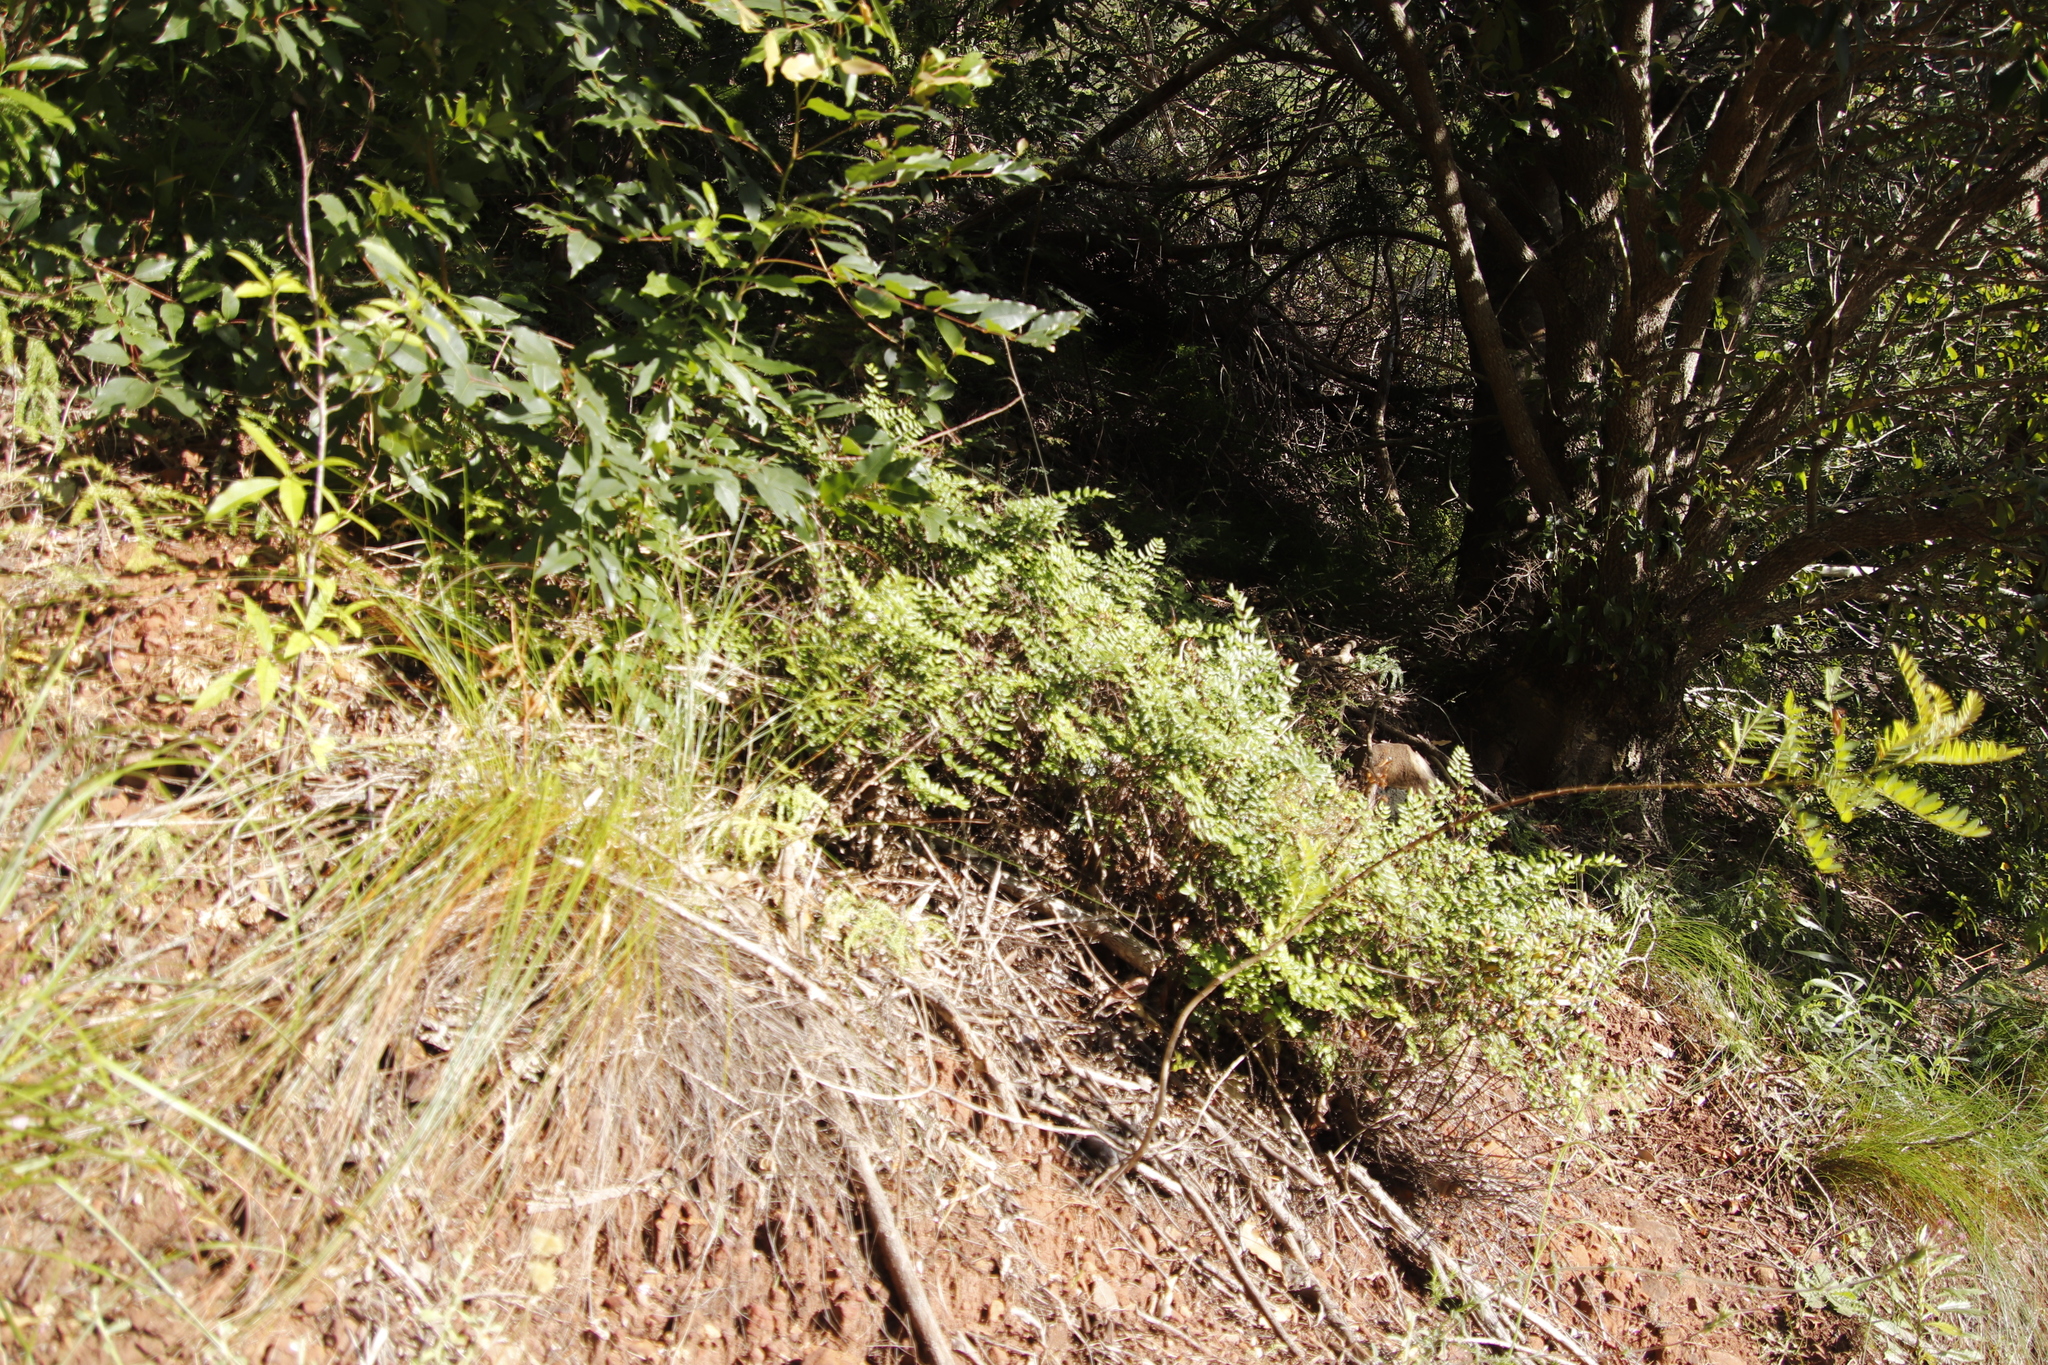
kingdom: Plantae
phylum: Tracheophyta
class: Polypodiopsida
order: Polypodiales
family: Pteridaceae
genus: Cheilanthes
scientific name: Cheilanthes viridis
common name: Green cliffbrake
